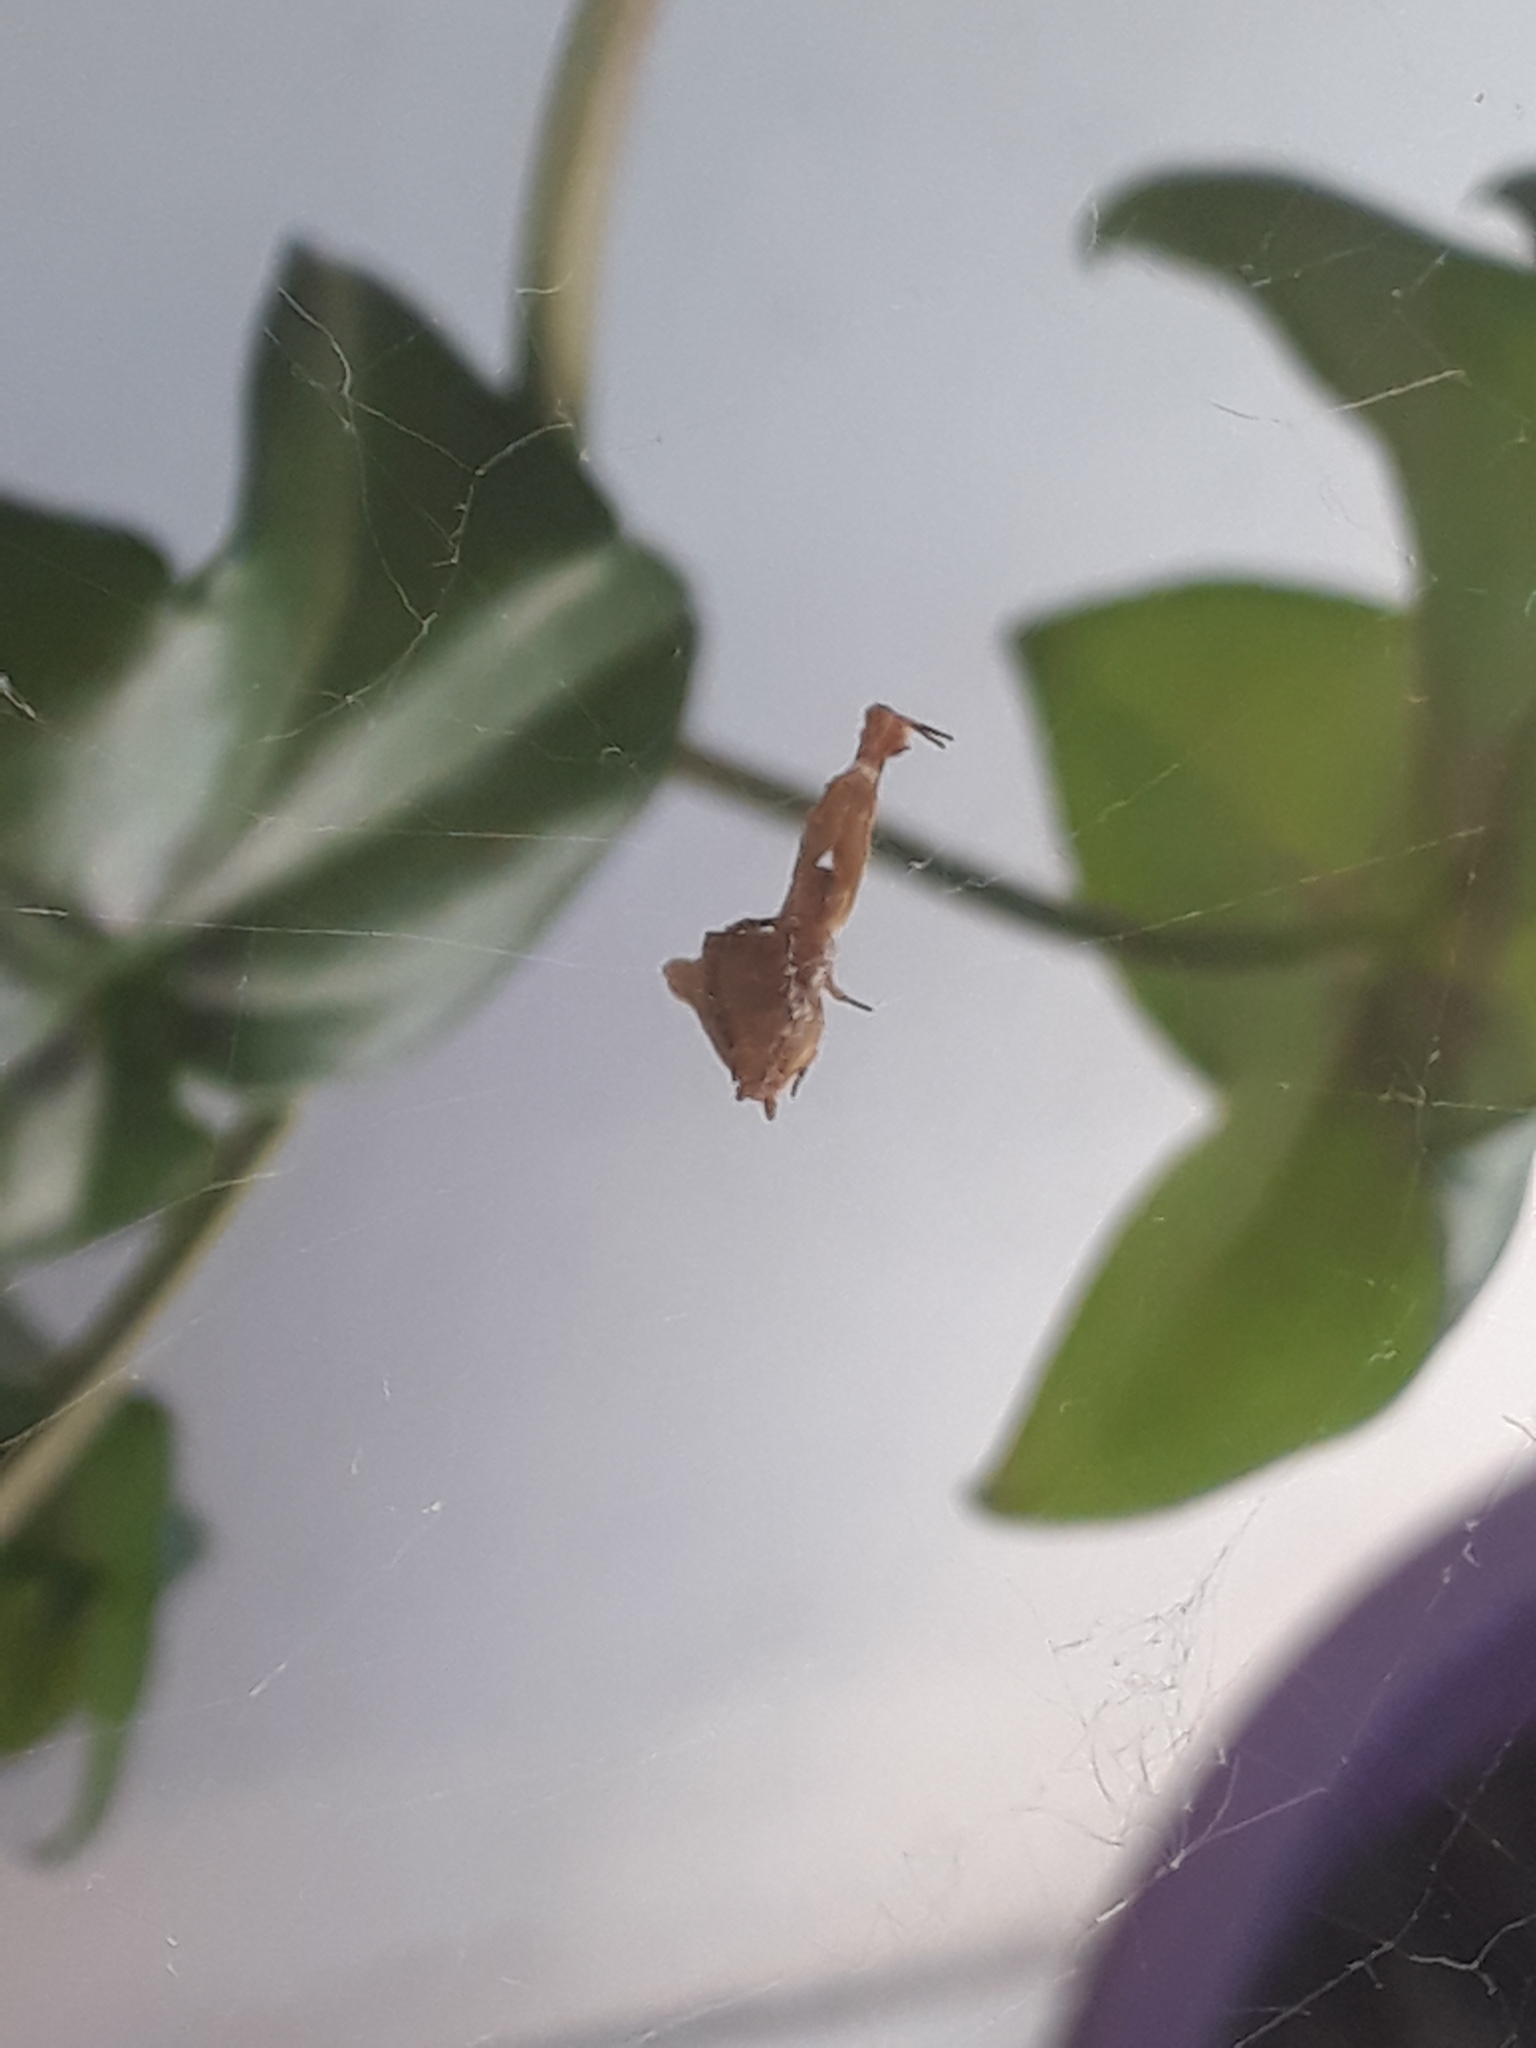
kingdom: Animalia
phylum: Arthropoda
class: Arachnida
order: Araneae
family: Uloboridae
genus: Uloborus
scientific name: Uloborus plumipes
